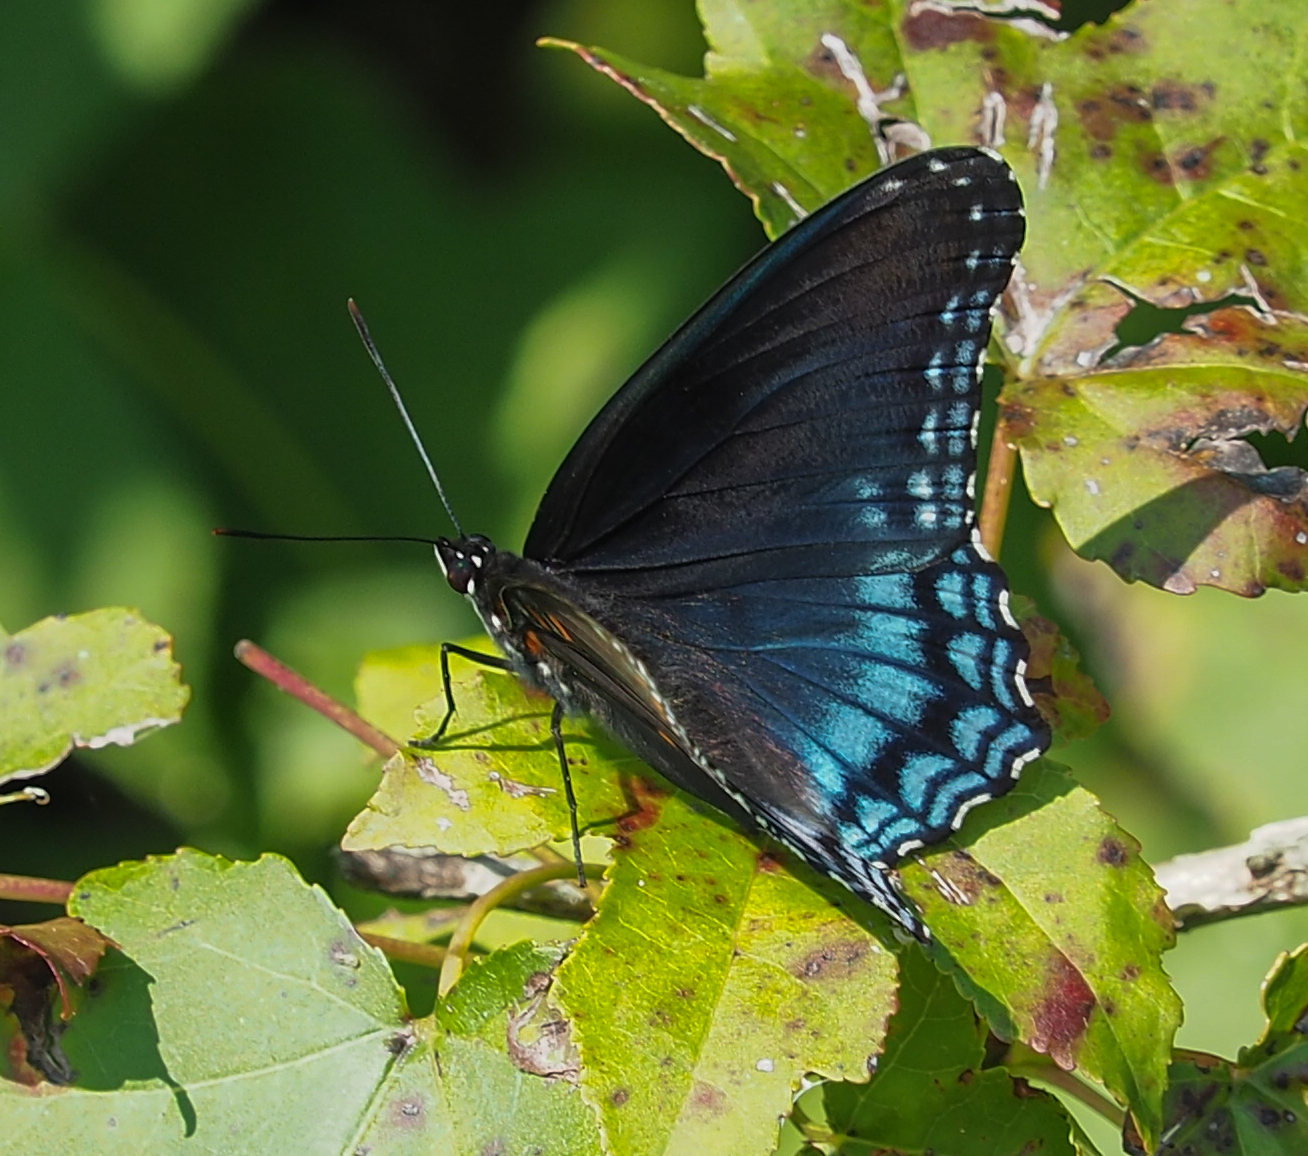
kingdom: Animalia
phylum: Arthropoda
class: Insecta
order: Lepidoptera
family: Nymphalidae
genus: Limenitis
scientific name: Limenitis astyanax
